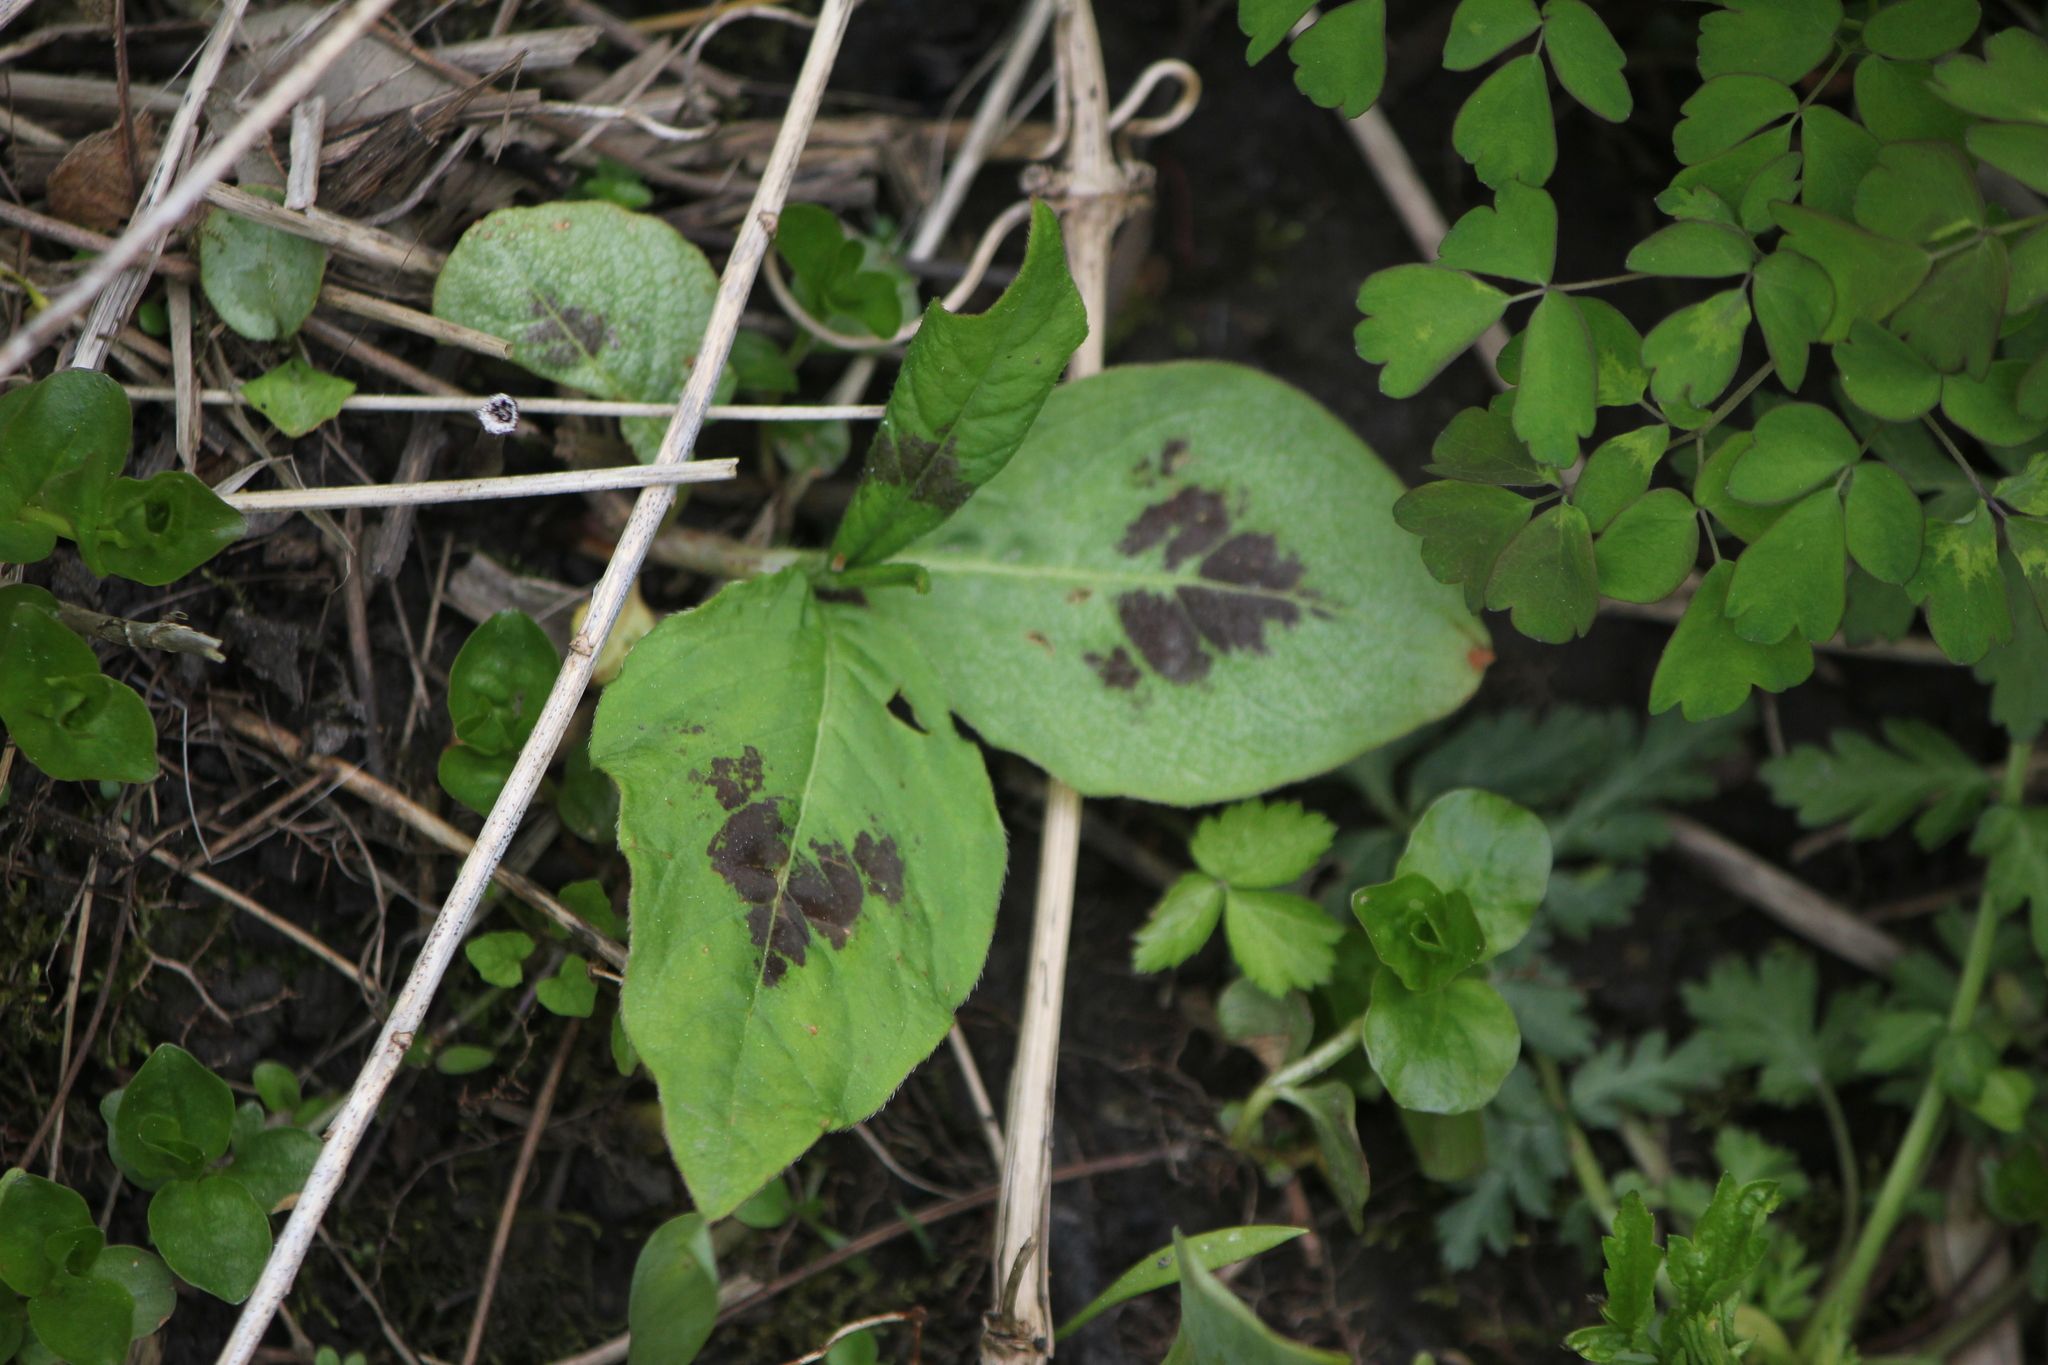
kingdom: Plantae
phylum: Tracheophyta
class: Magnoliopsida
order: Caryophyllales
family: Polygonaceae
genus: Persicaria
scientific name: Persicaria virginiana
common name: Jumpseed
